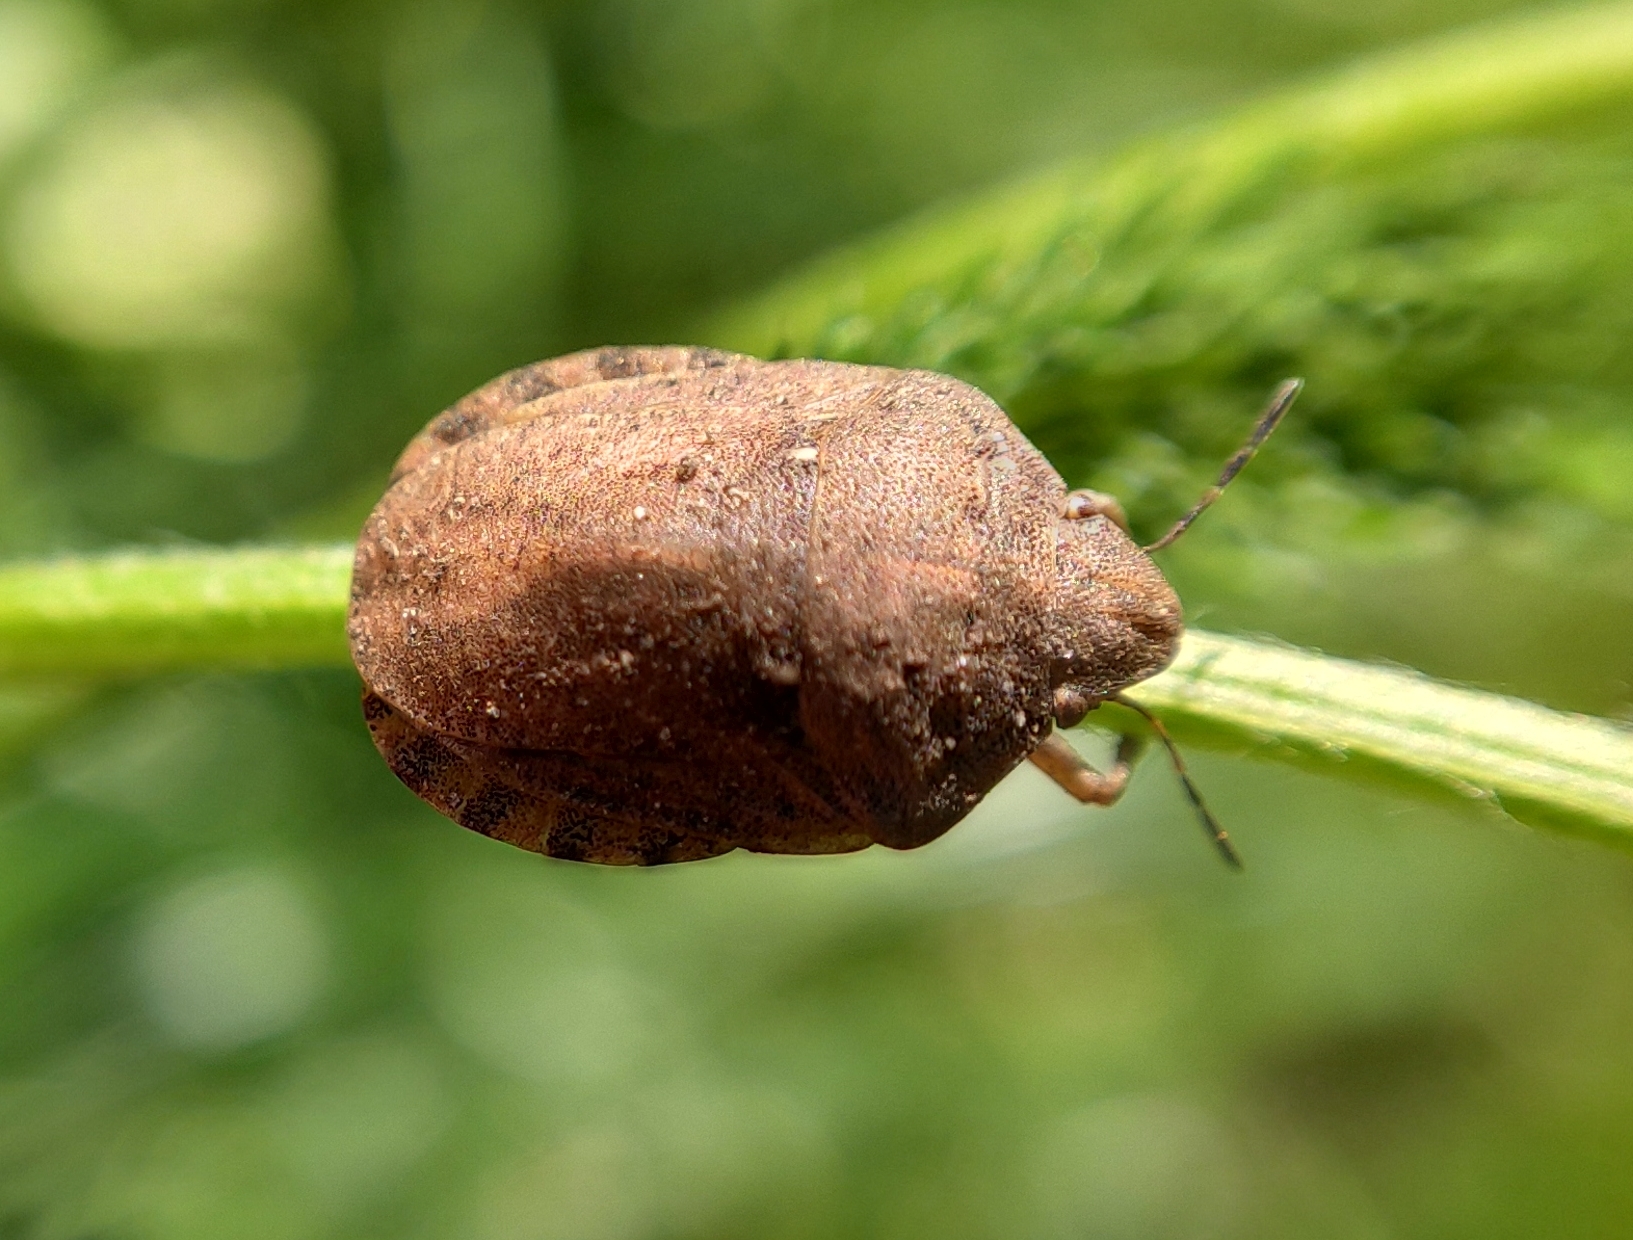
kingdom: Animalia
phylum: Arthropoda
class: Insecta
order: Hemiptera
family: Scutelleridae
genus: Eurygaster
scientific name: Eurygaster maura
